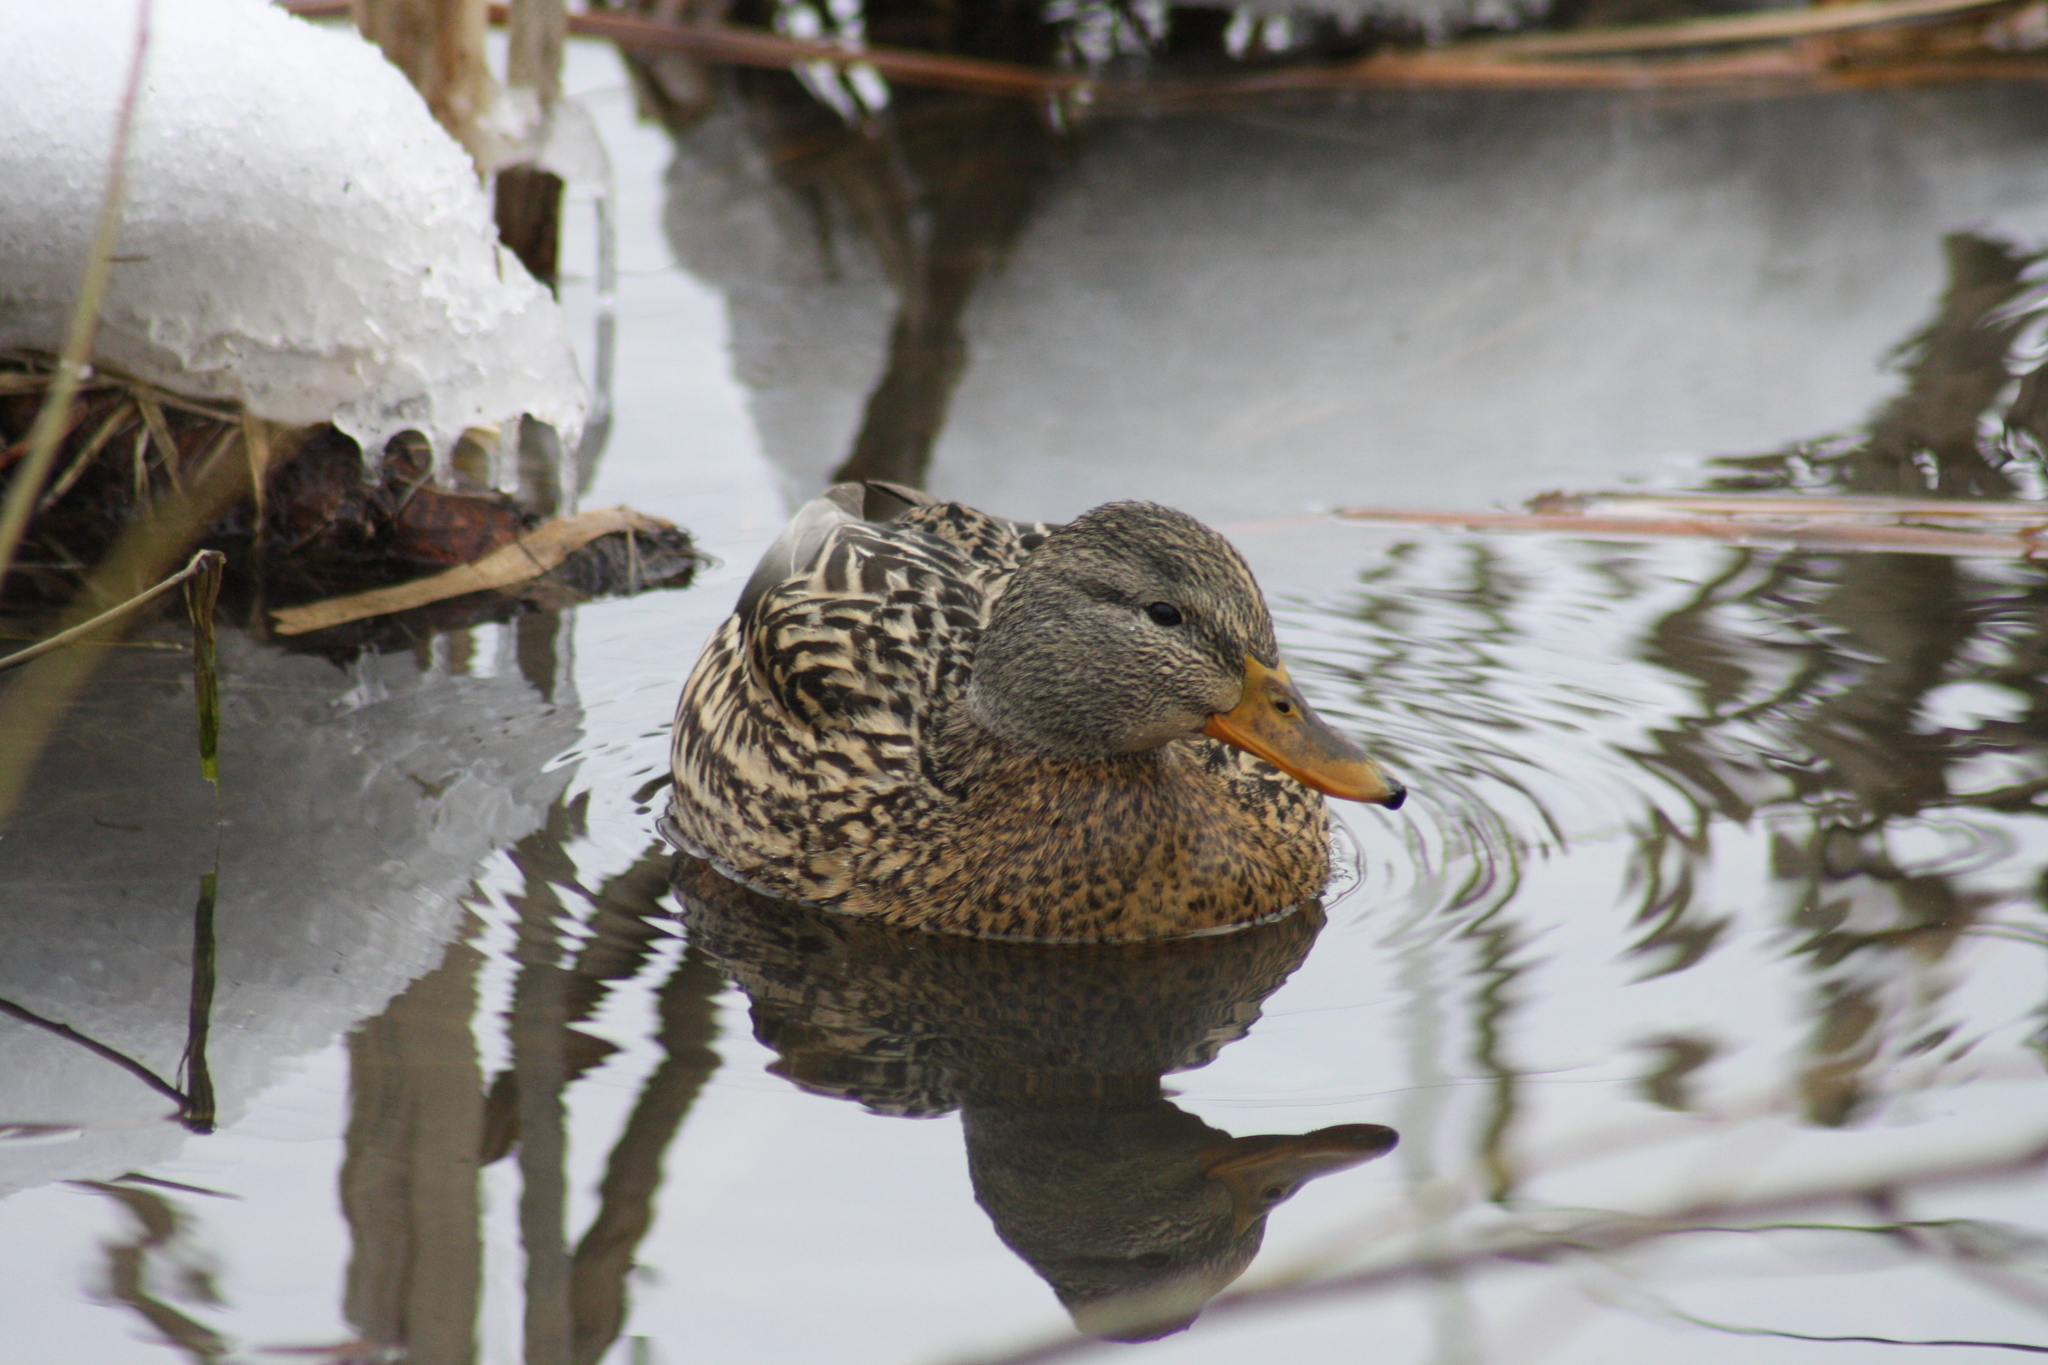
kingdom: Animalia
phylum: Chordata
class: Aves
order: Anseriformes
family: Anatidae
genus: Anas
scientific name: Anas platyrhynchos
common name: Mallard
